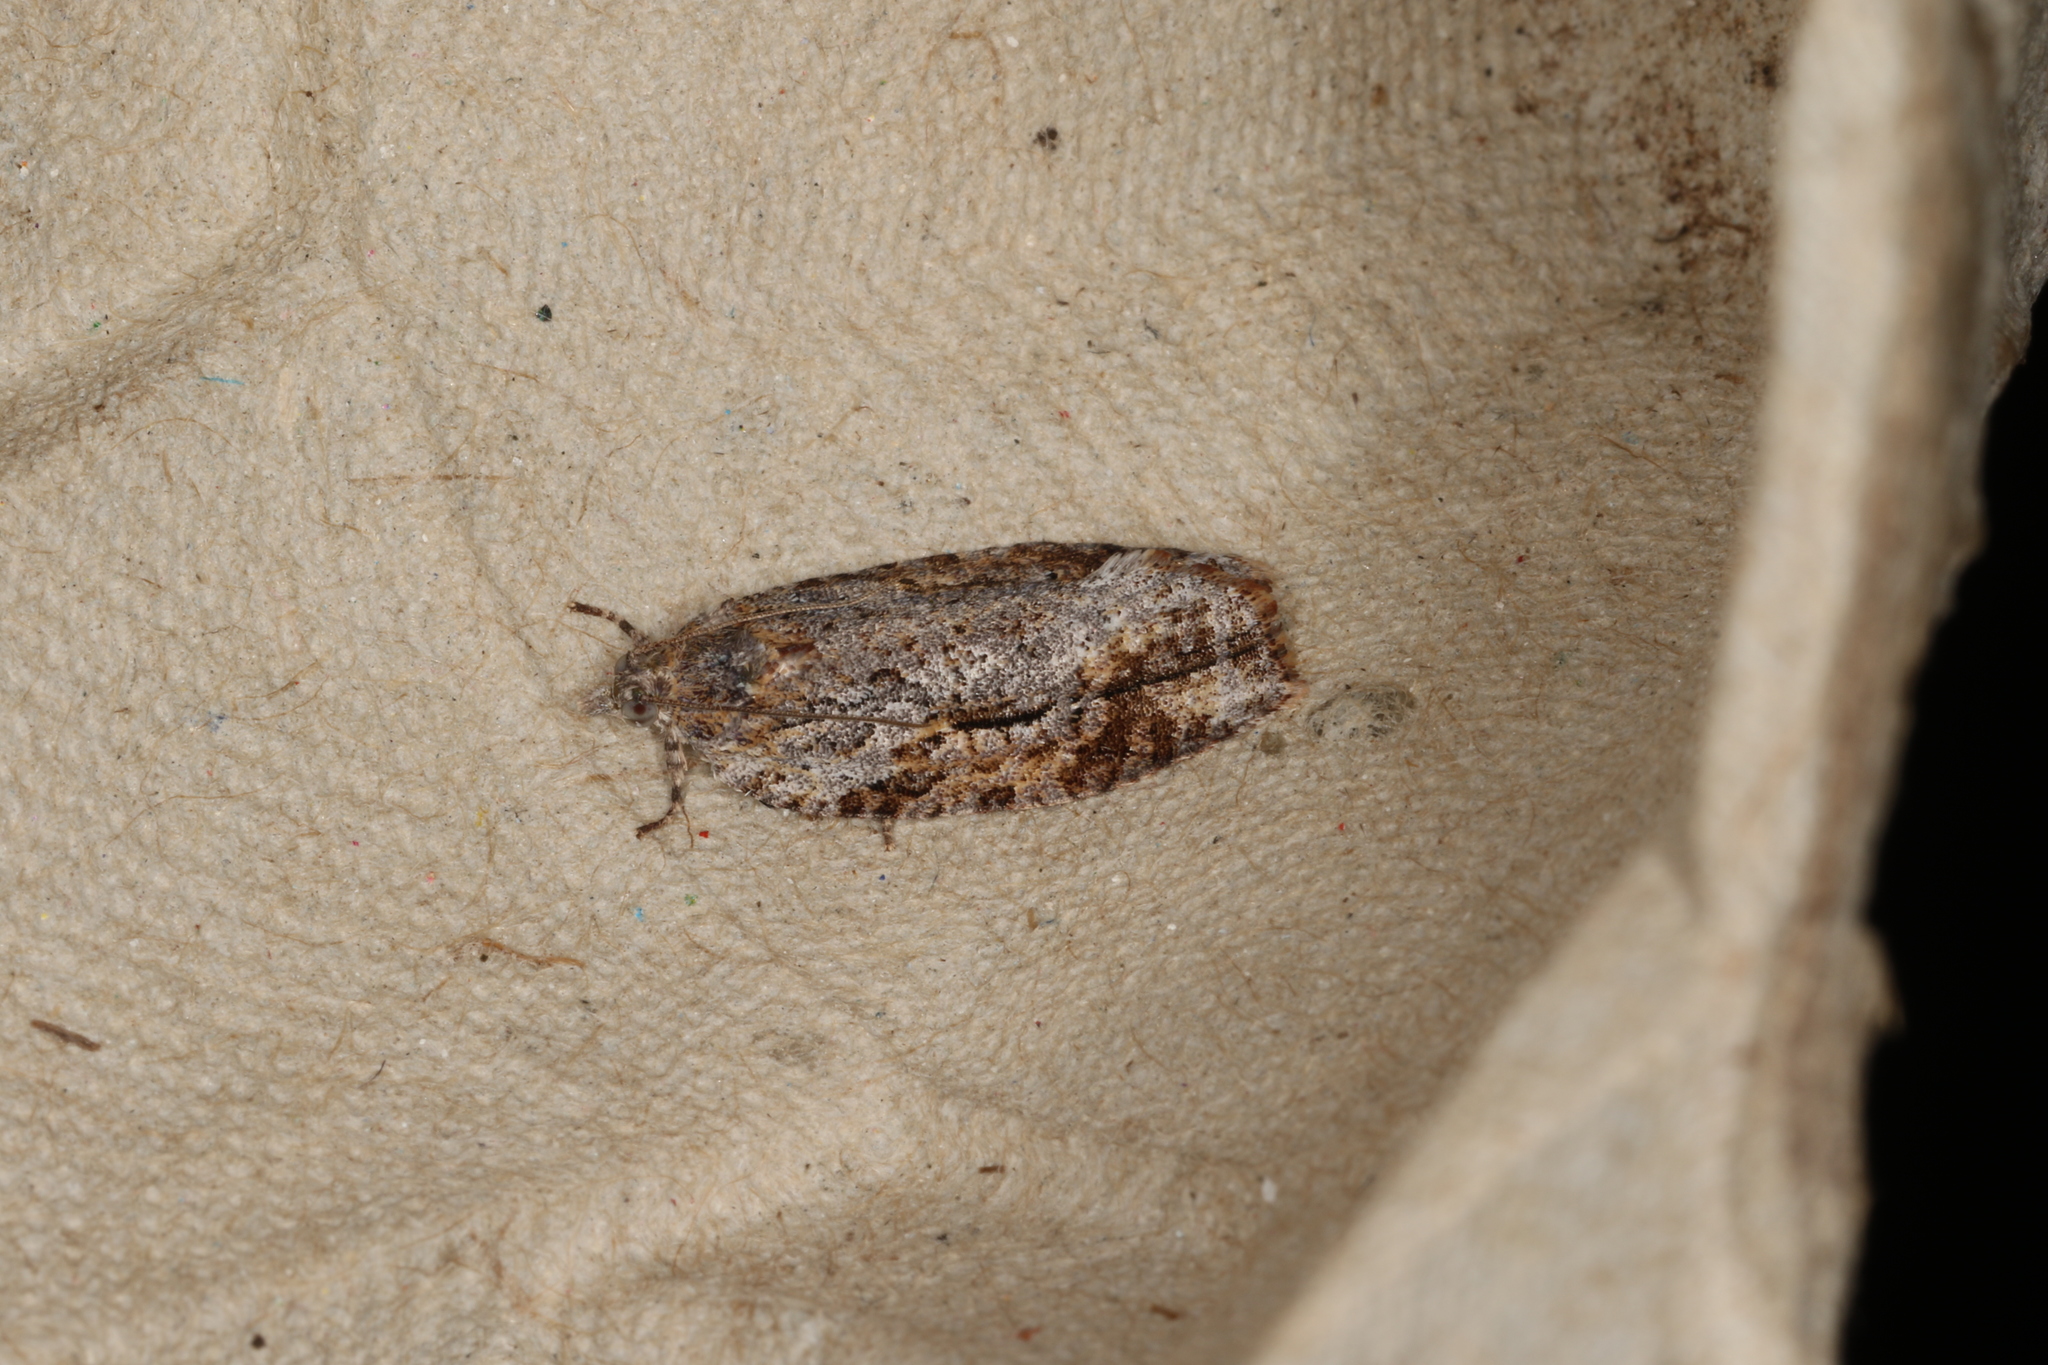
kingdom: Animalia
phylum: Arthropoda
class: Insecta
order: Lepidoptera
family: Tortricidae
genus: Acropolitis
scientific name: Acropolitis rudisana
